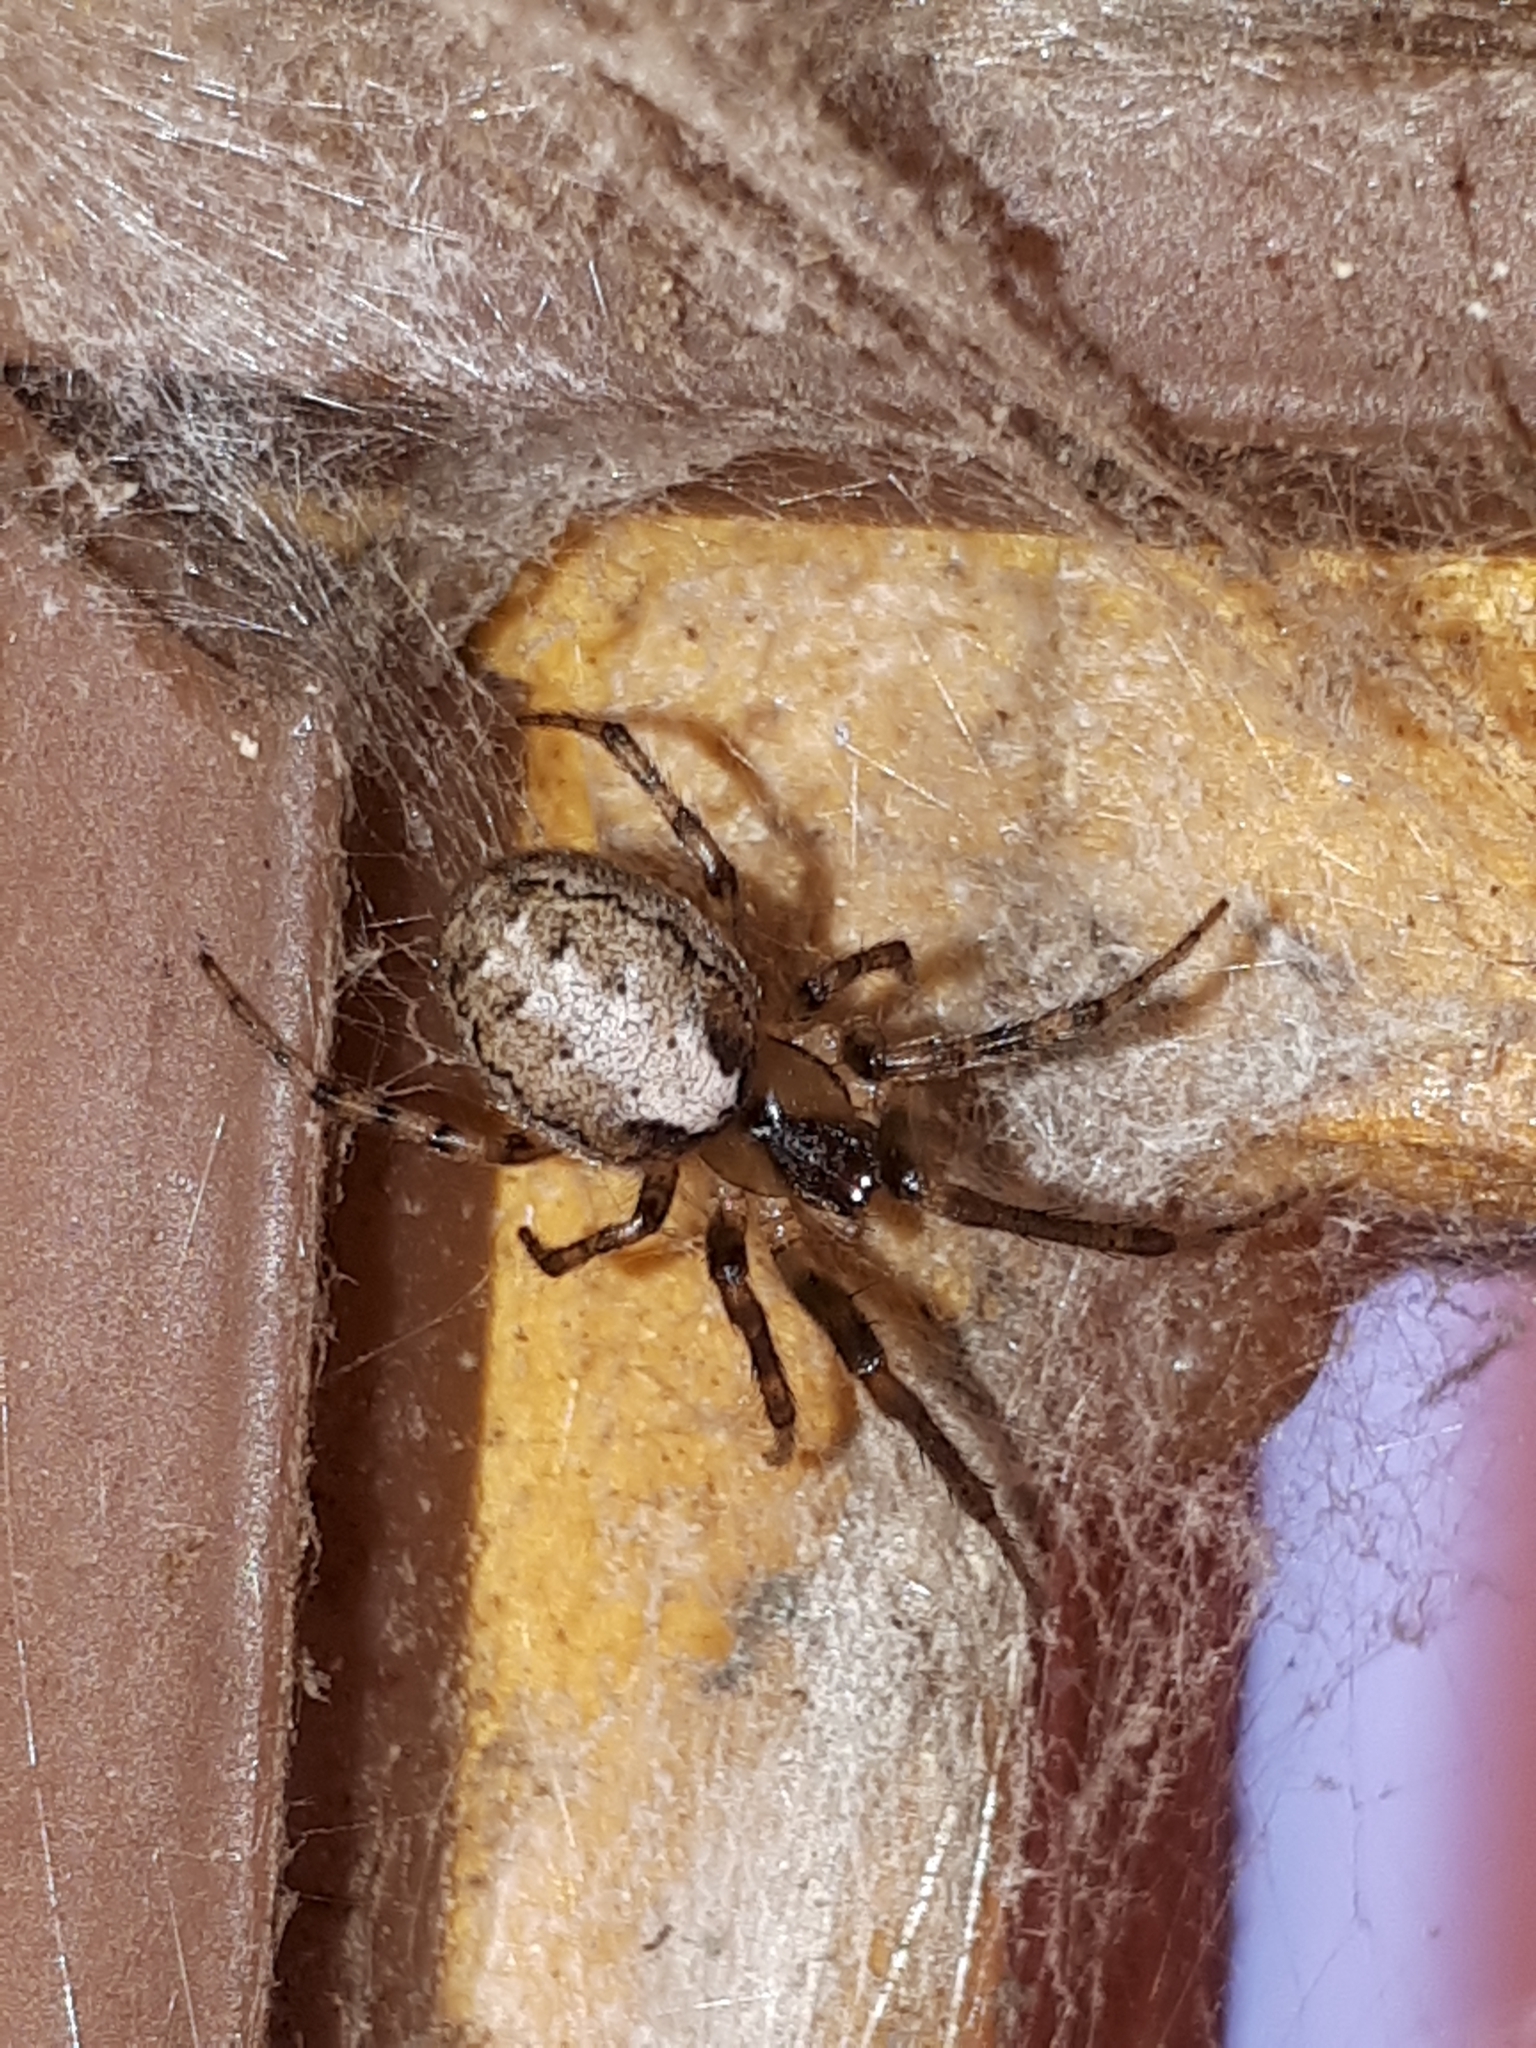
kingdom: Animalia
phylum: Arthropoda
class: Arachnida
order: Araneae
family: Araneidae
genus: Zygiella
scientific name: Zygiella x-notata
